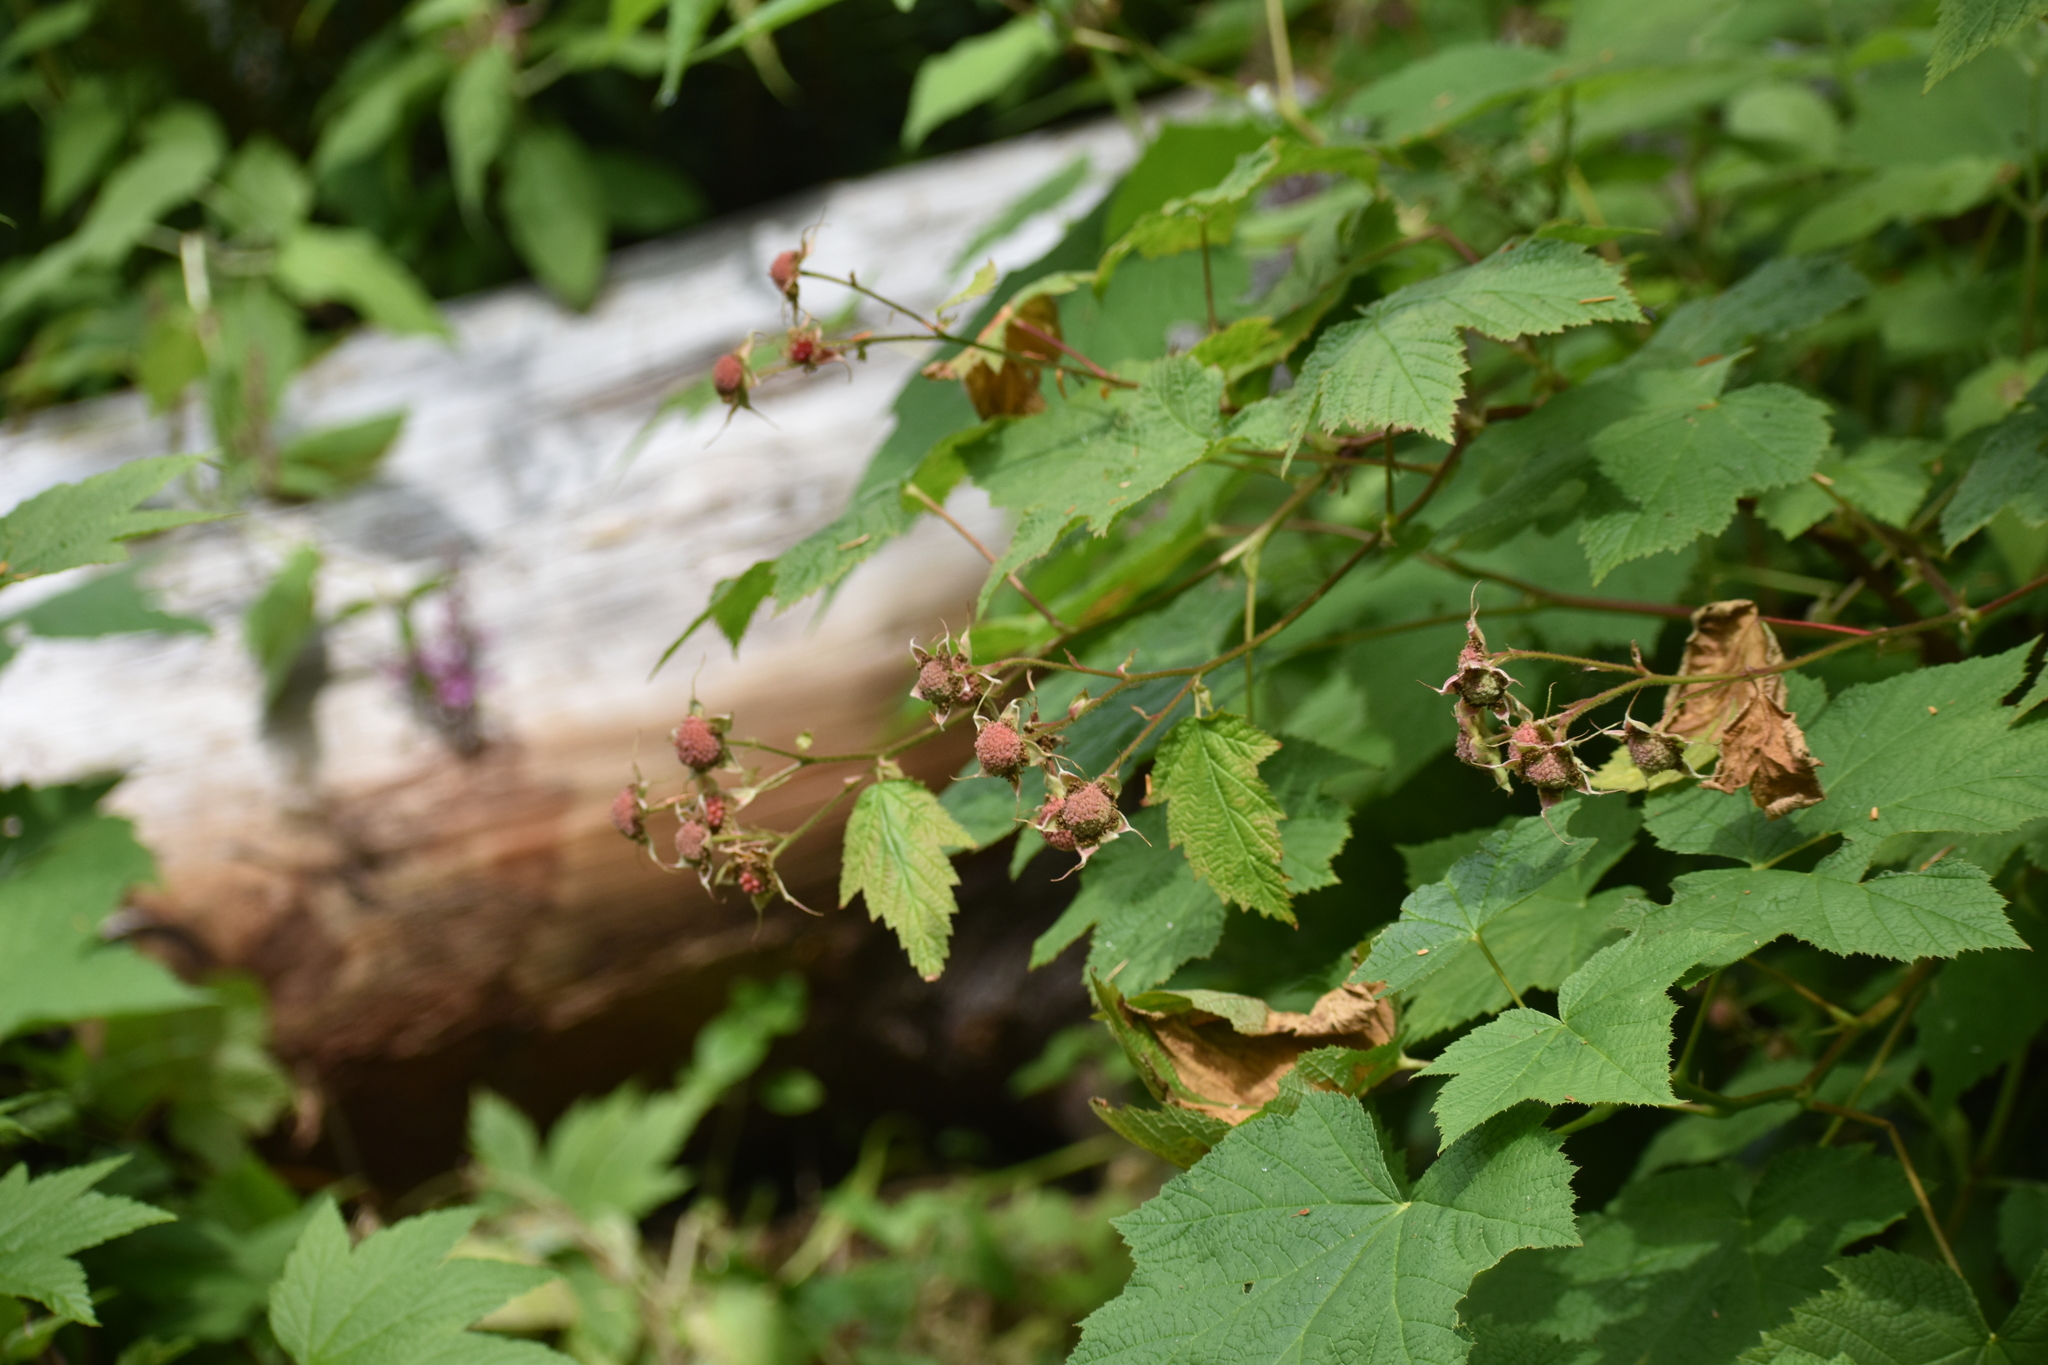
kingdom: Plantae
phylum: Tracheophyta
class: Magnoliopsida
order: Rosales
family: Rosaceae
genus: Rubus
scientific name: Rubus parviflorus
